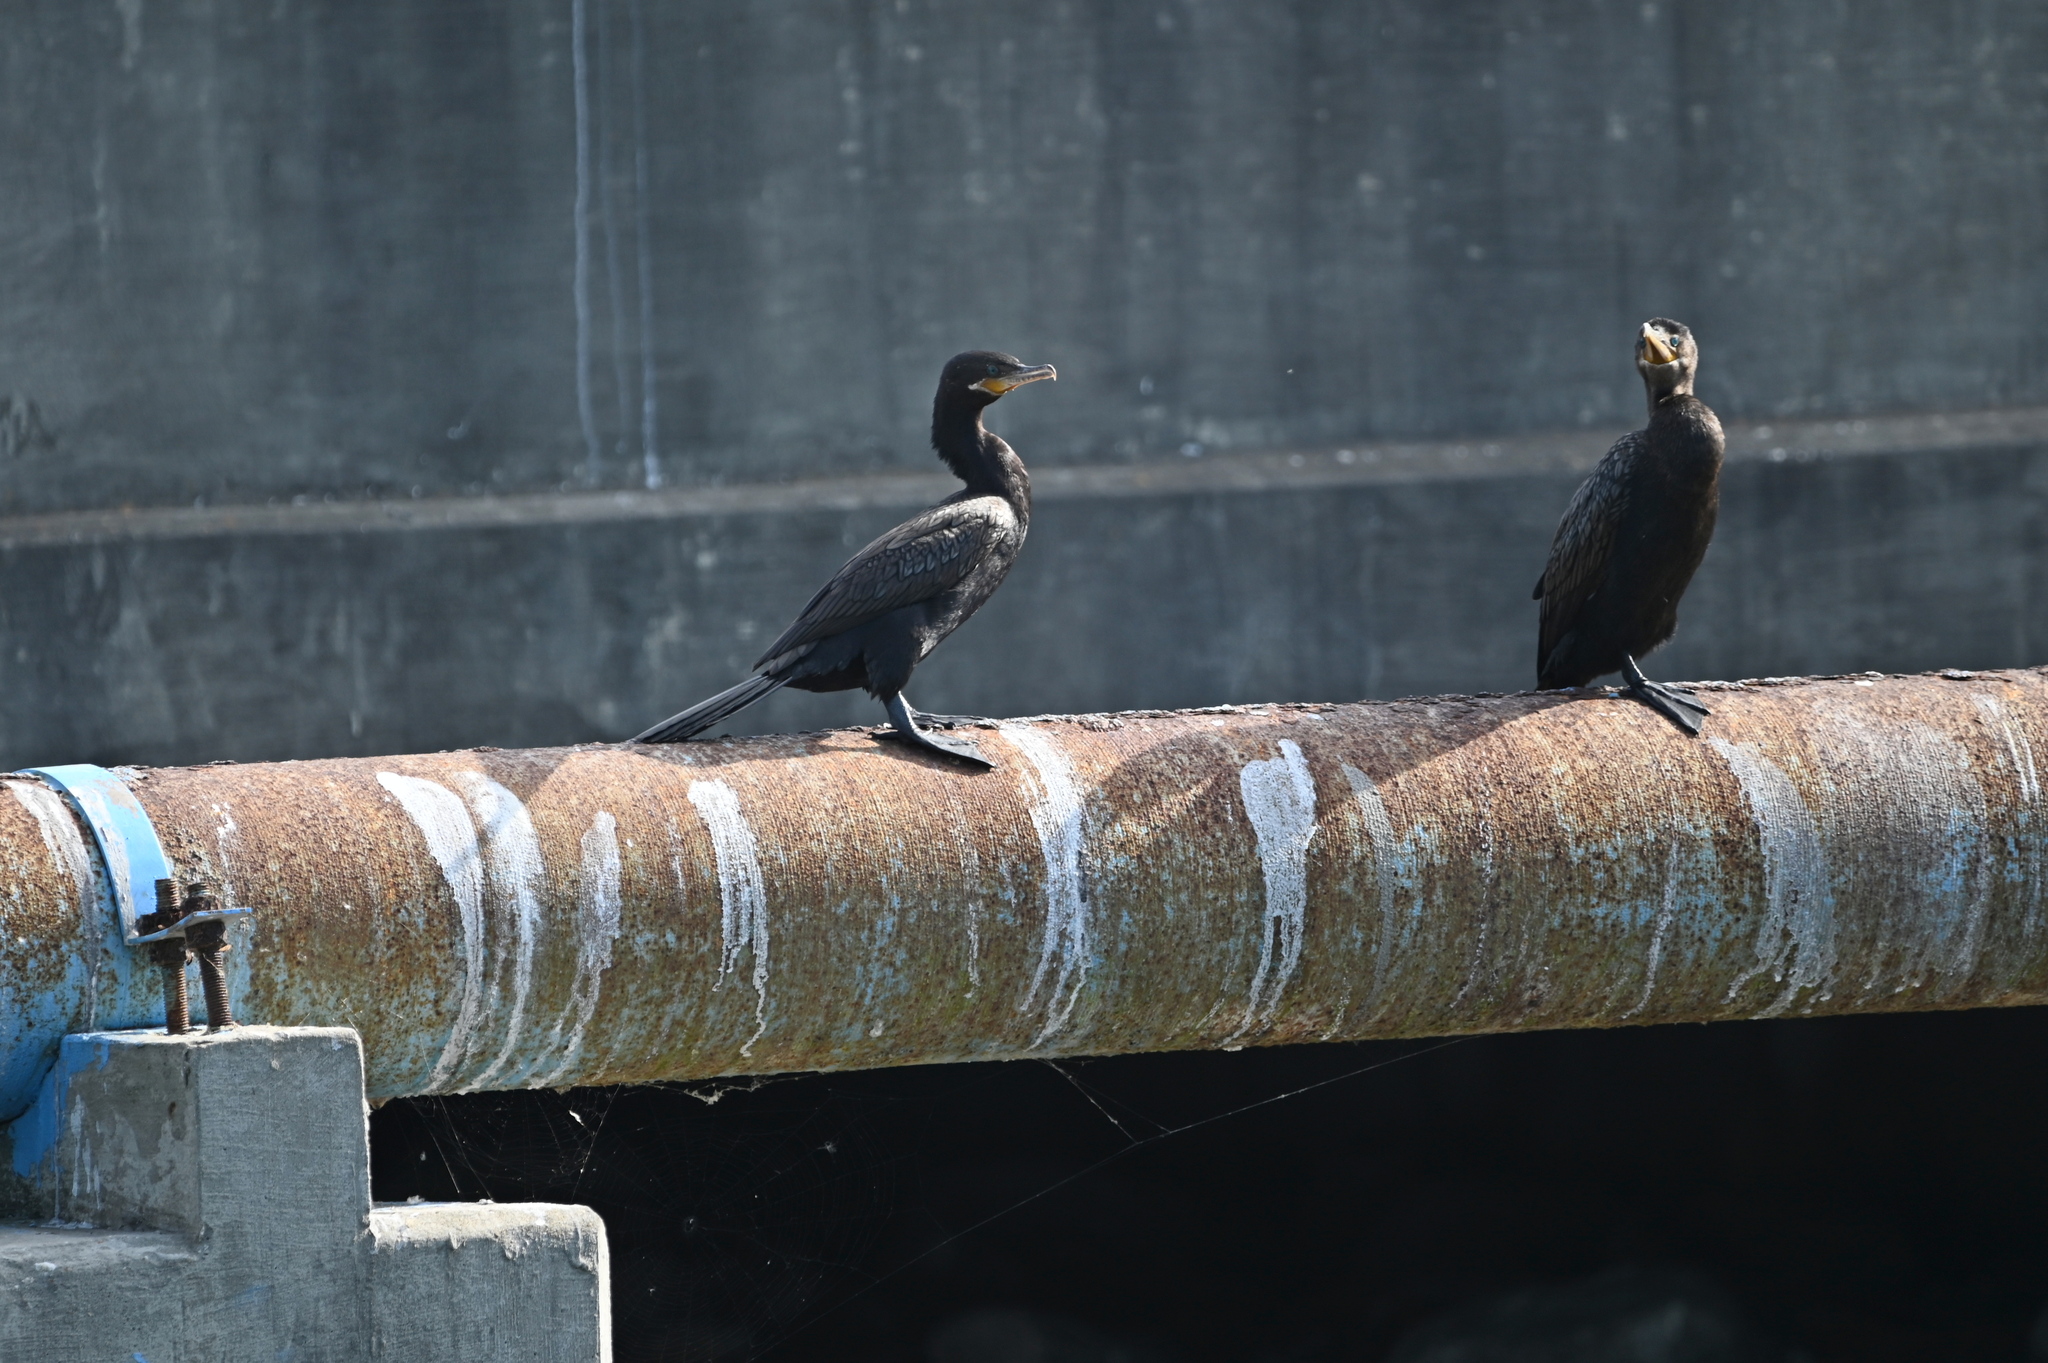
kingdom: Animalia
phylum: Chordata
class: Aves
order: Suliformes
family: Phalacrocoracidae
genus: Phalacrocorax
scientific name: Phalacrocorax brasilianus
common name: Neotropic cormorant
